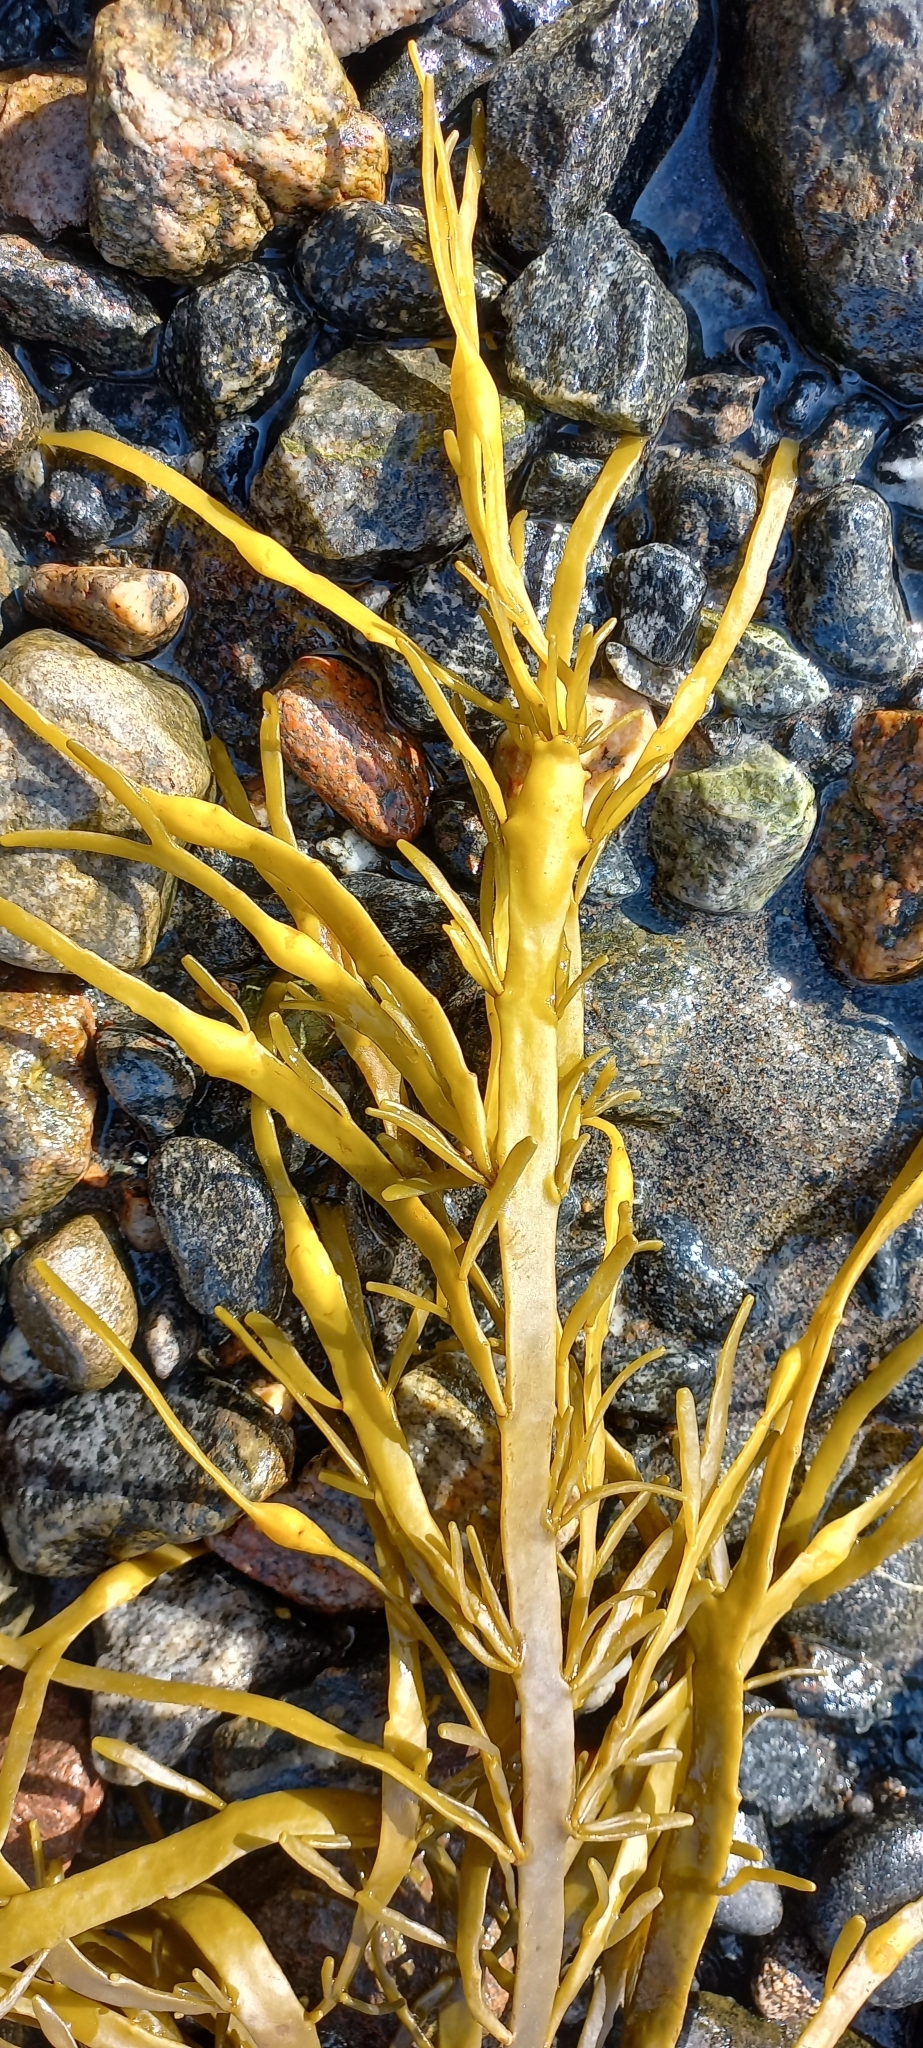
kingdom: Chromista
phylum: Ochrophyta
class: Phaeophyceae
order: Fucales
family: Fucaceae
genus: Ascophyllum
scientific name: Ascophyllum nodosum
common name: Knotted wrack
